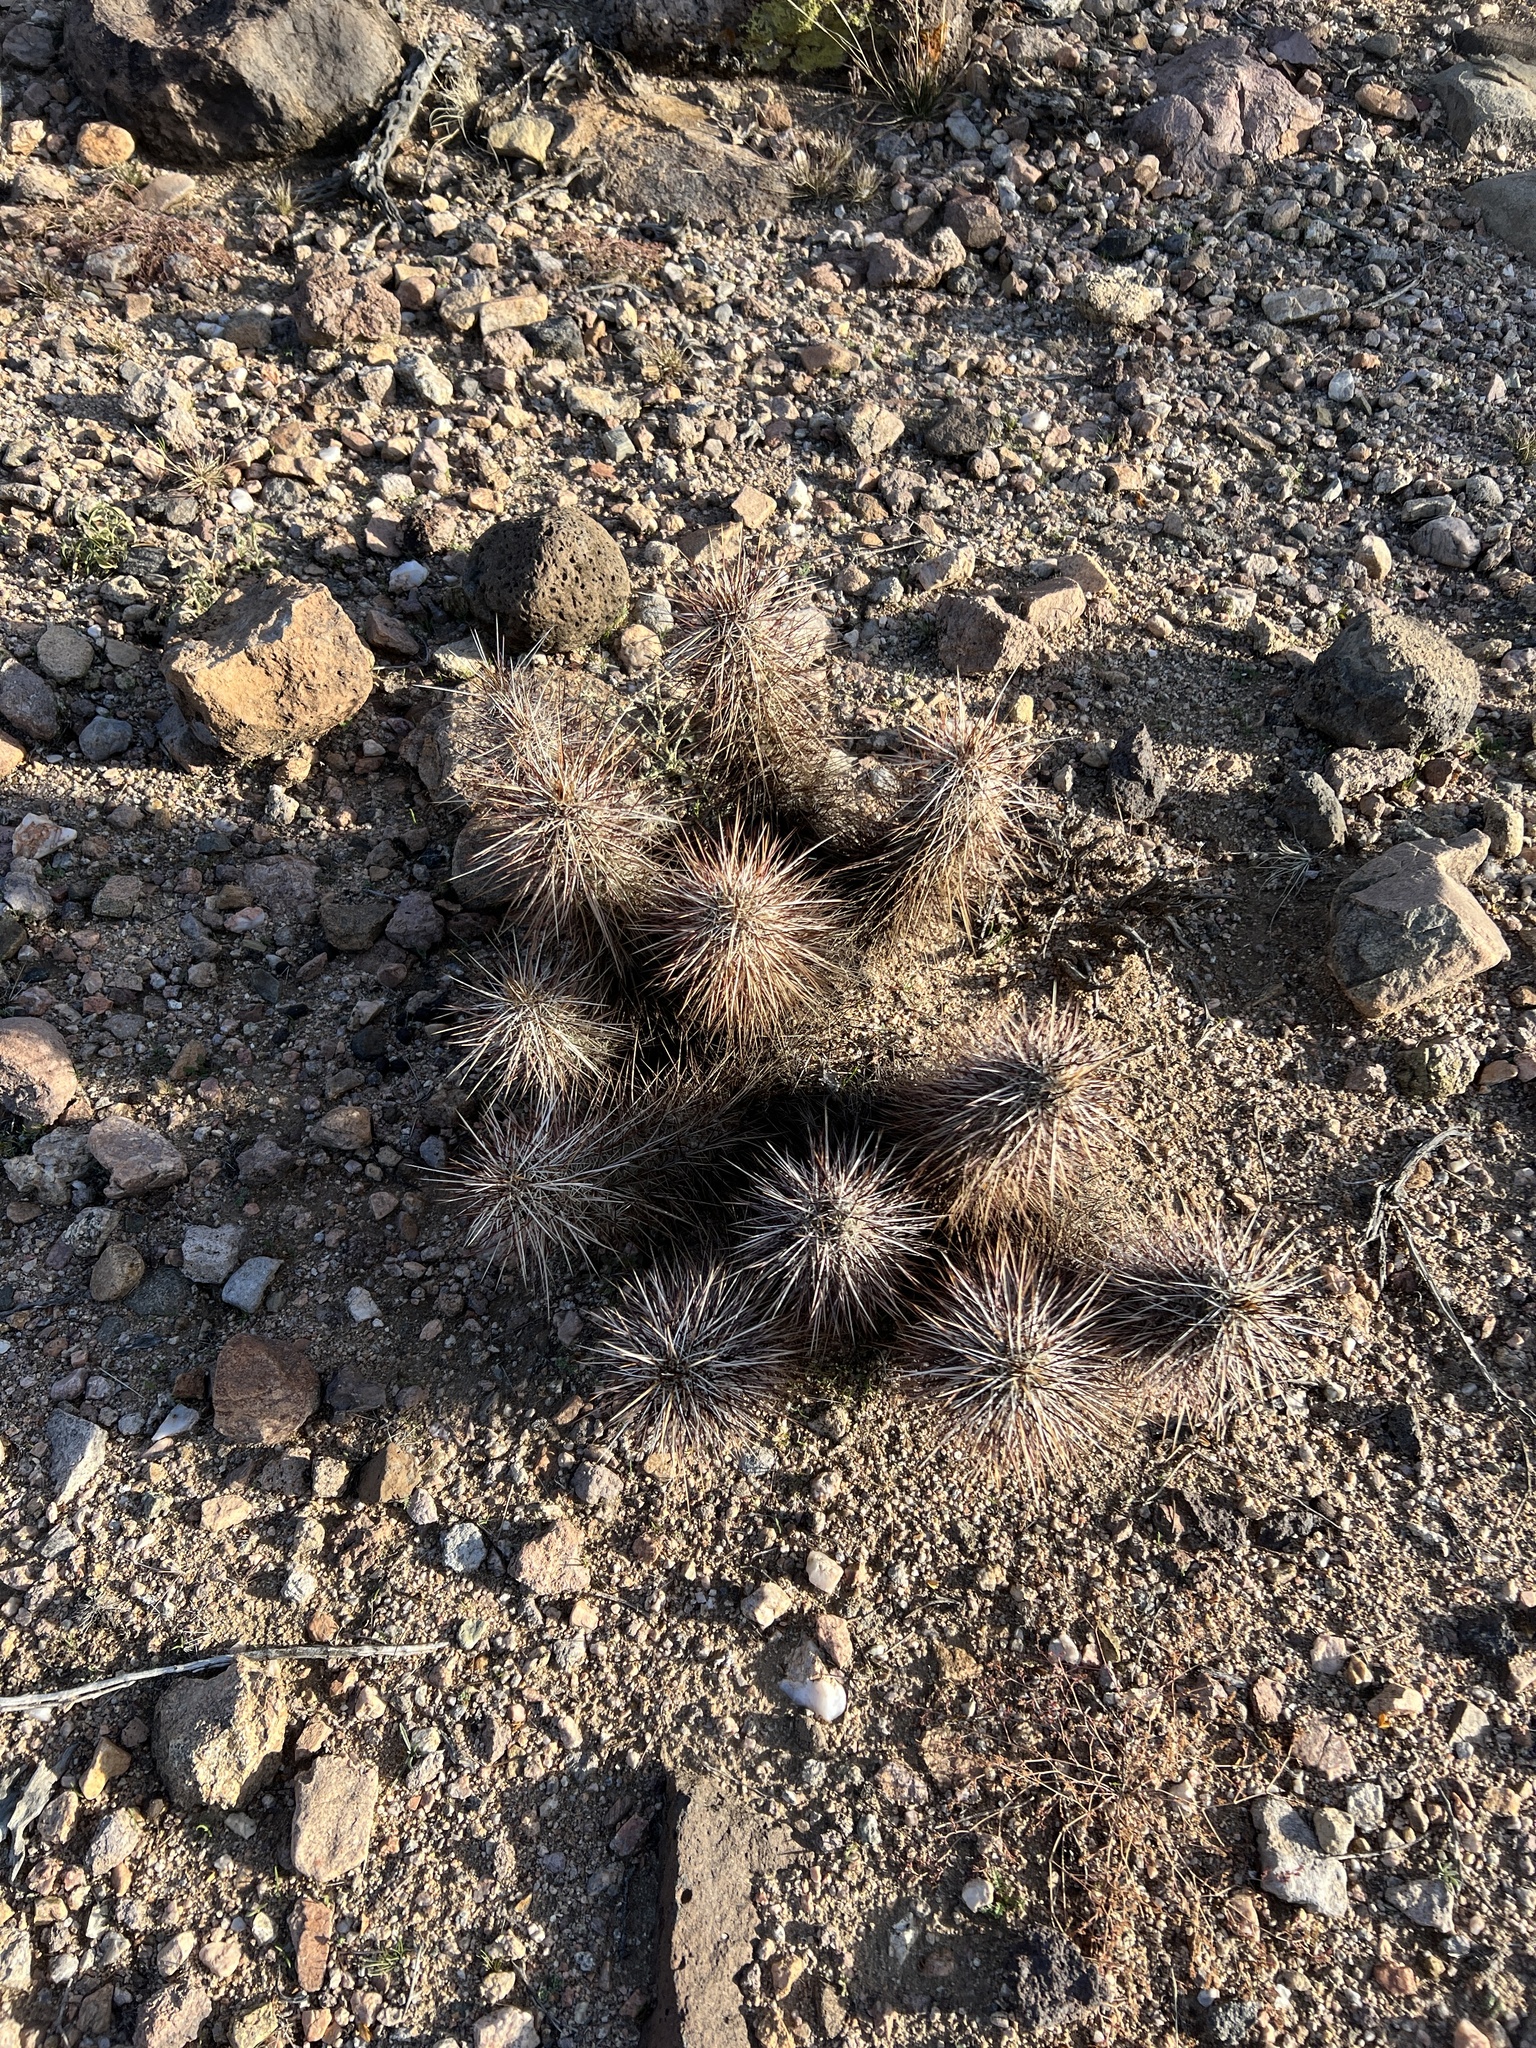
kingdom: Plantae
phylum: Tracheophyta
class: Magnoliopsida
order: Caryophyllales
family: Cactaceae
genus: Echinocereus
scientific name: Echinocereus engelmannii
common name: Engelmann's hedgehog cactus
